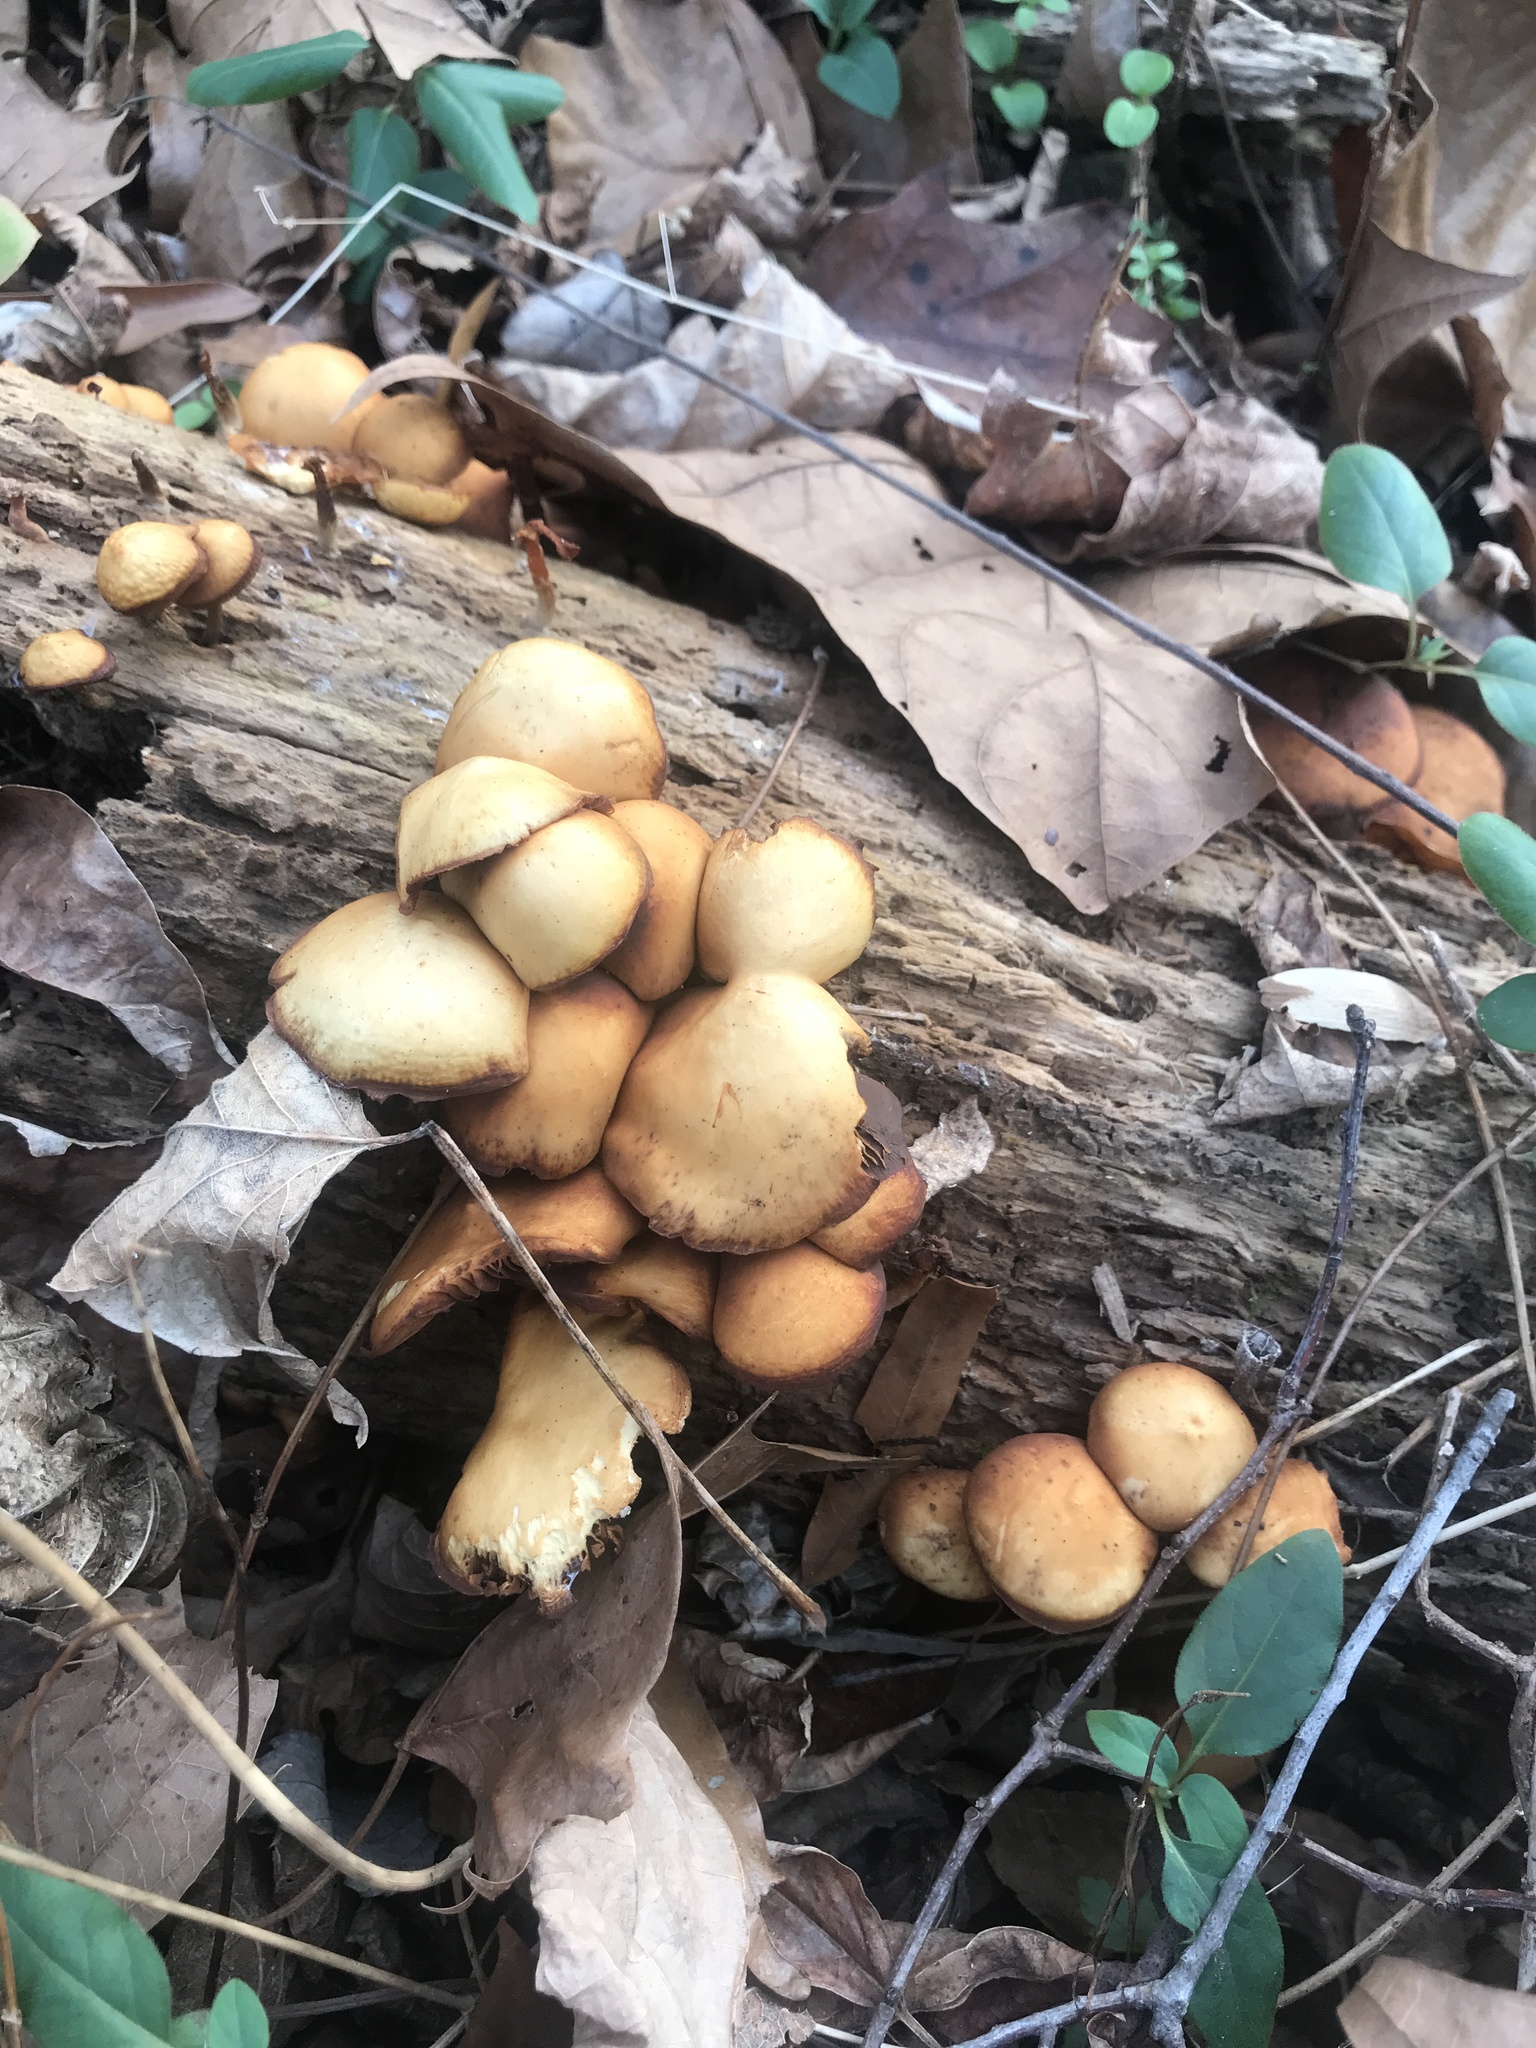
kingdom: Fungi
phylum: Basidiomycota
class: Agaricomycetes
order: Agaricales
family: Hymenogastraceae
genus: Galerina
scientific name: Galerina marginata
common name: Funeral bell
